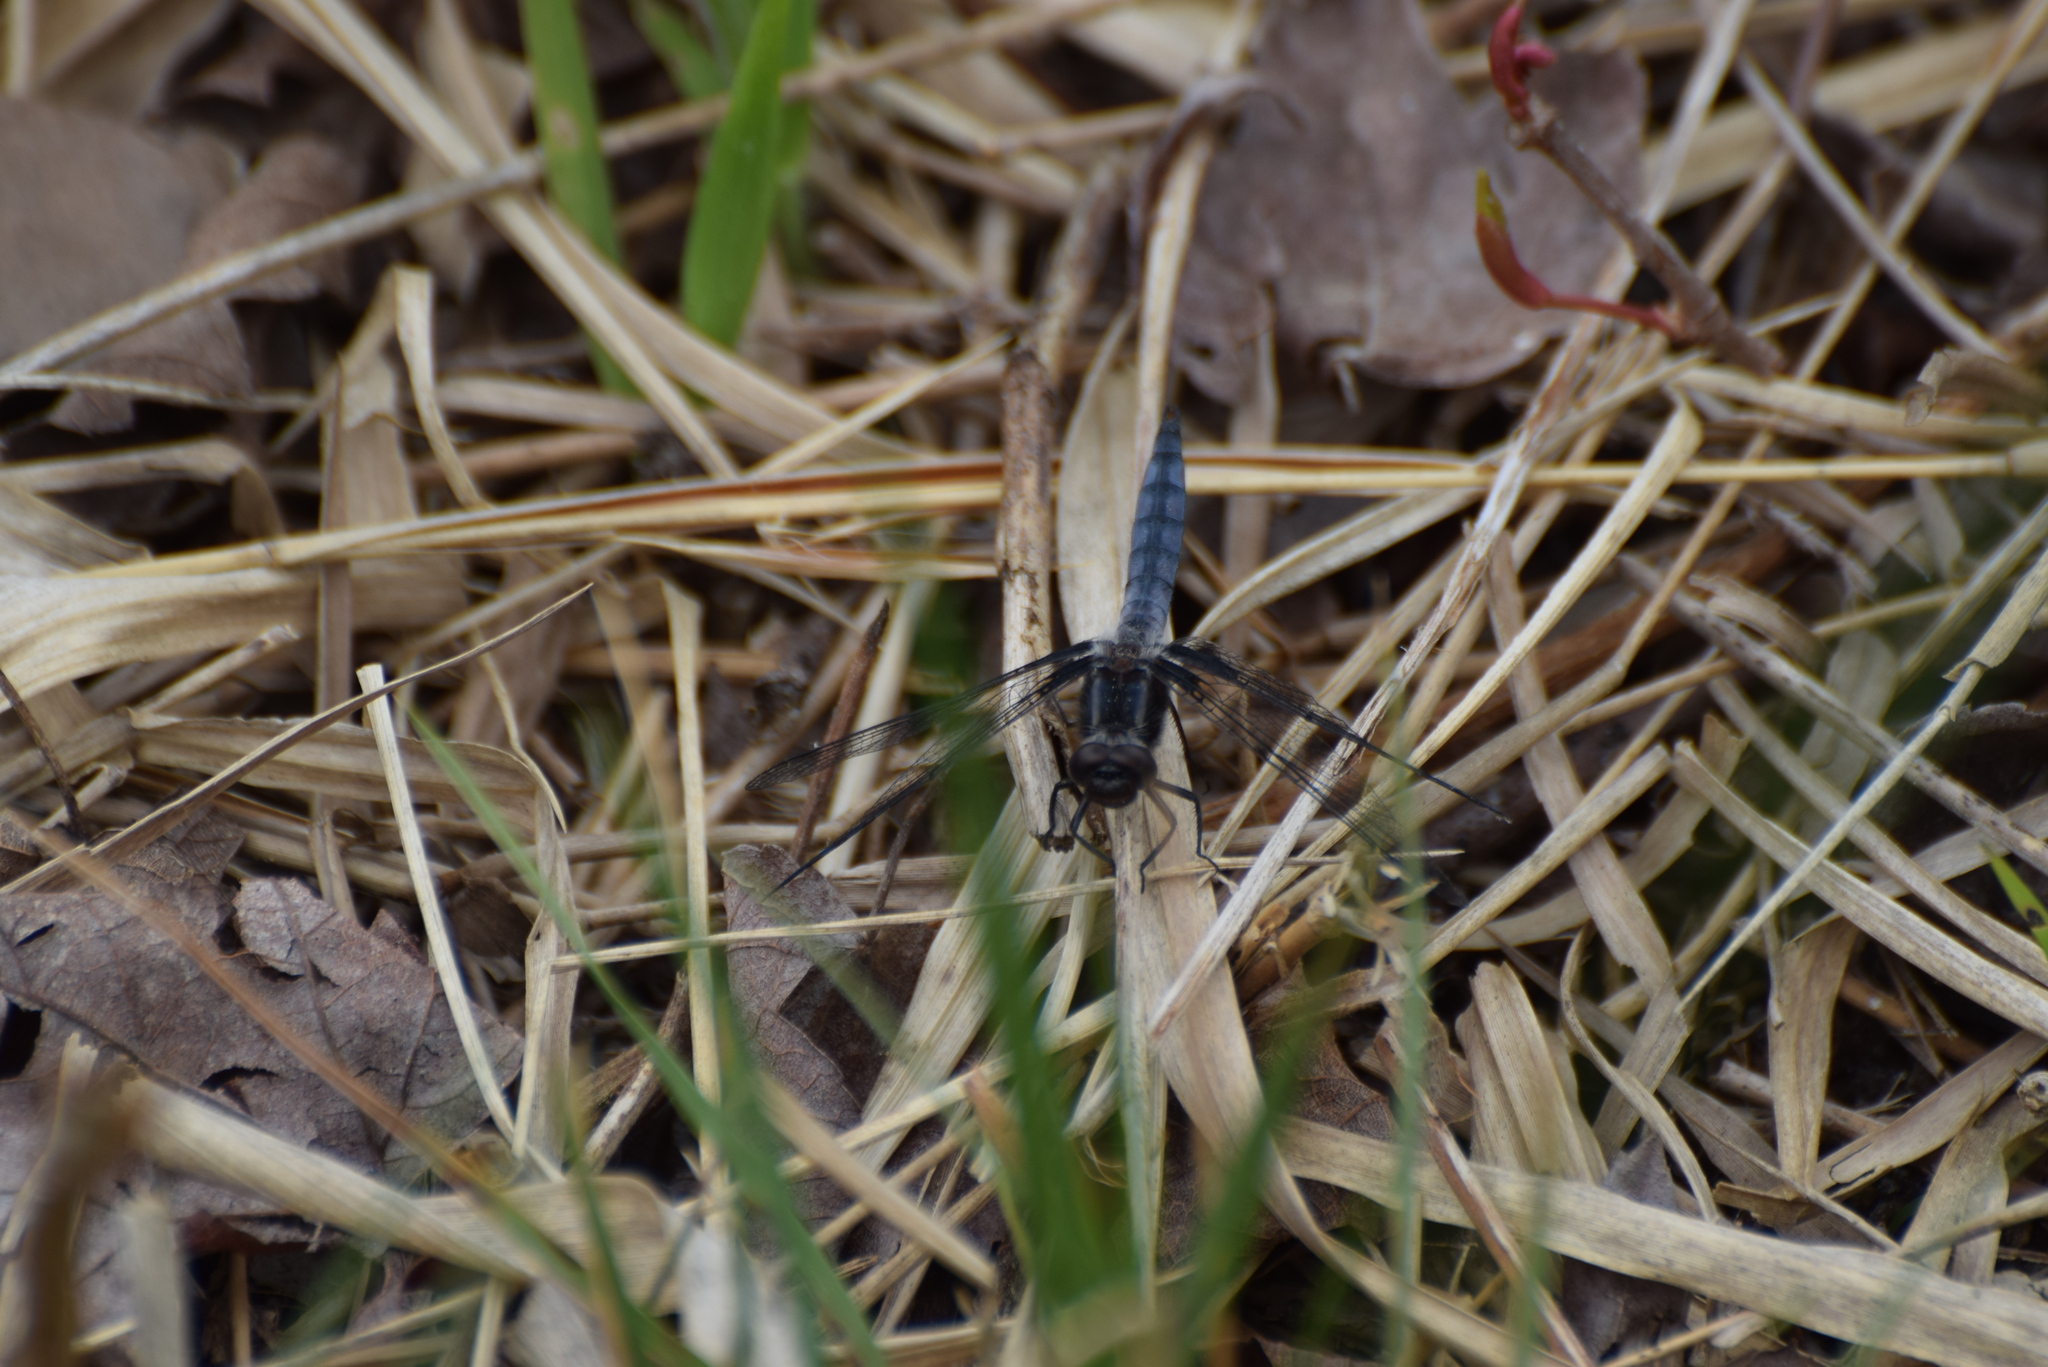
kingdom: Animalia
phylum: Arthropoda
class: Insecta
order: Odonata
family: Libellulidae
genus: Ladona
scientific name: Ladona deplanata
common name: Blue corporal
